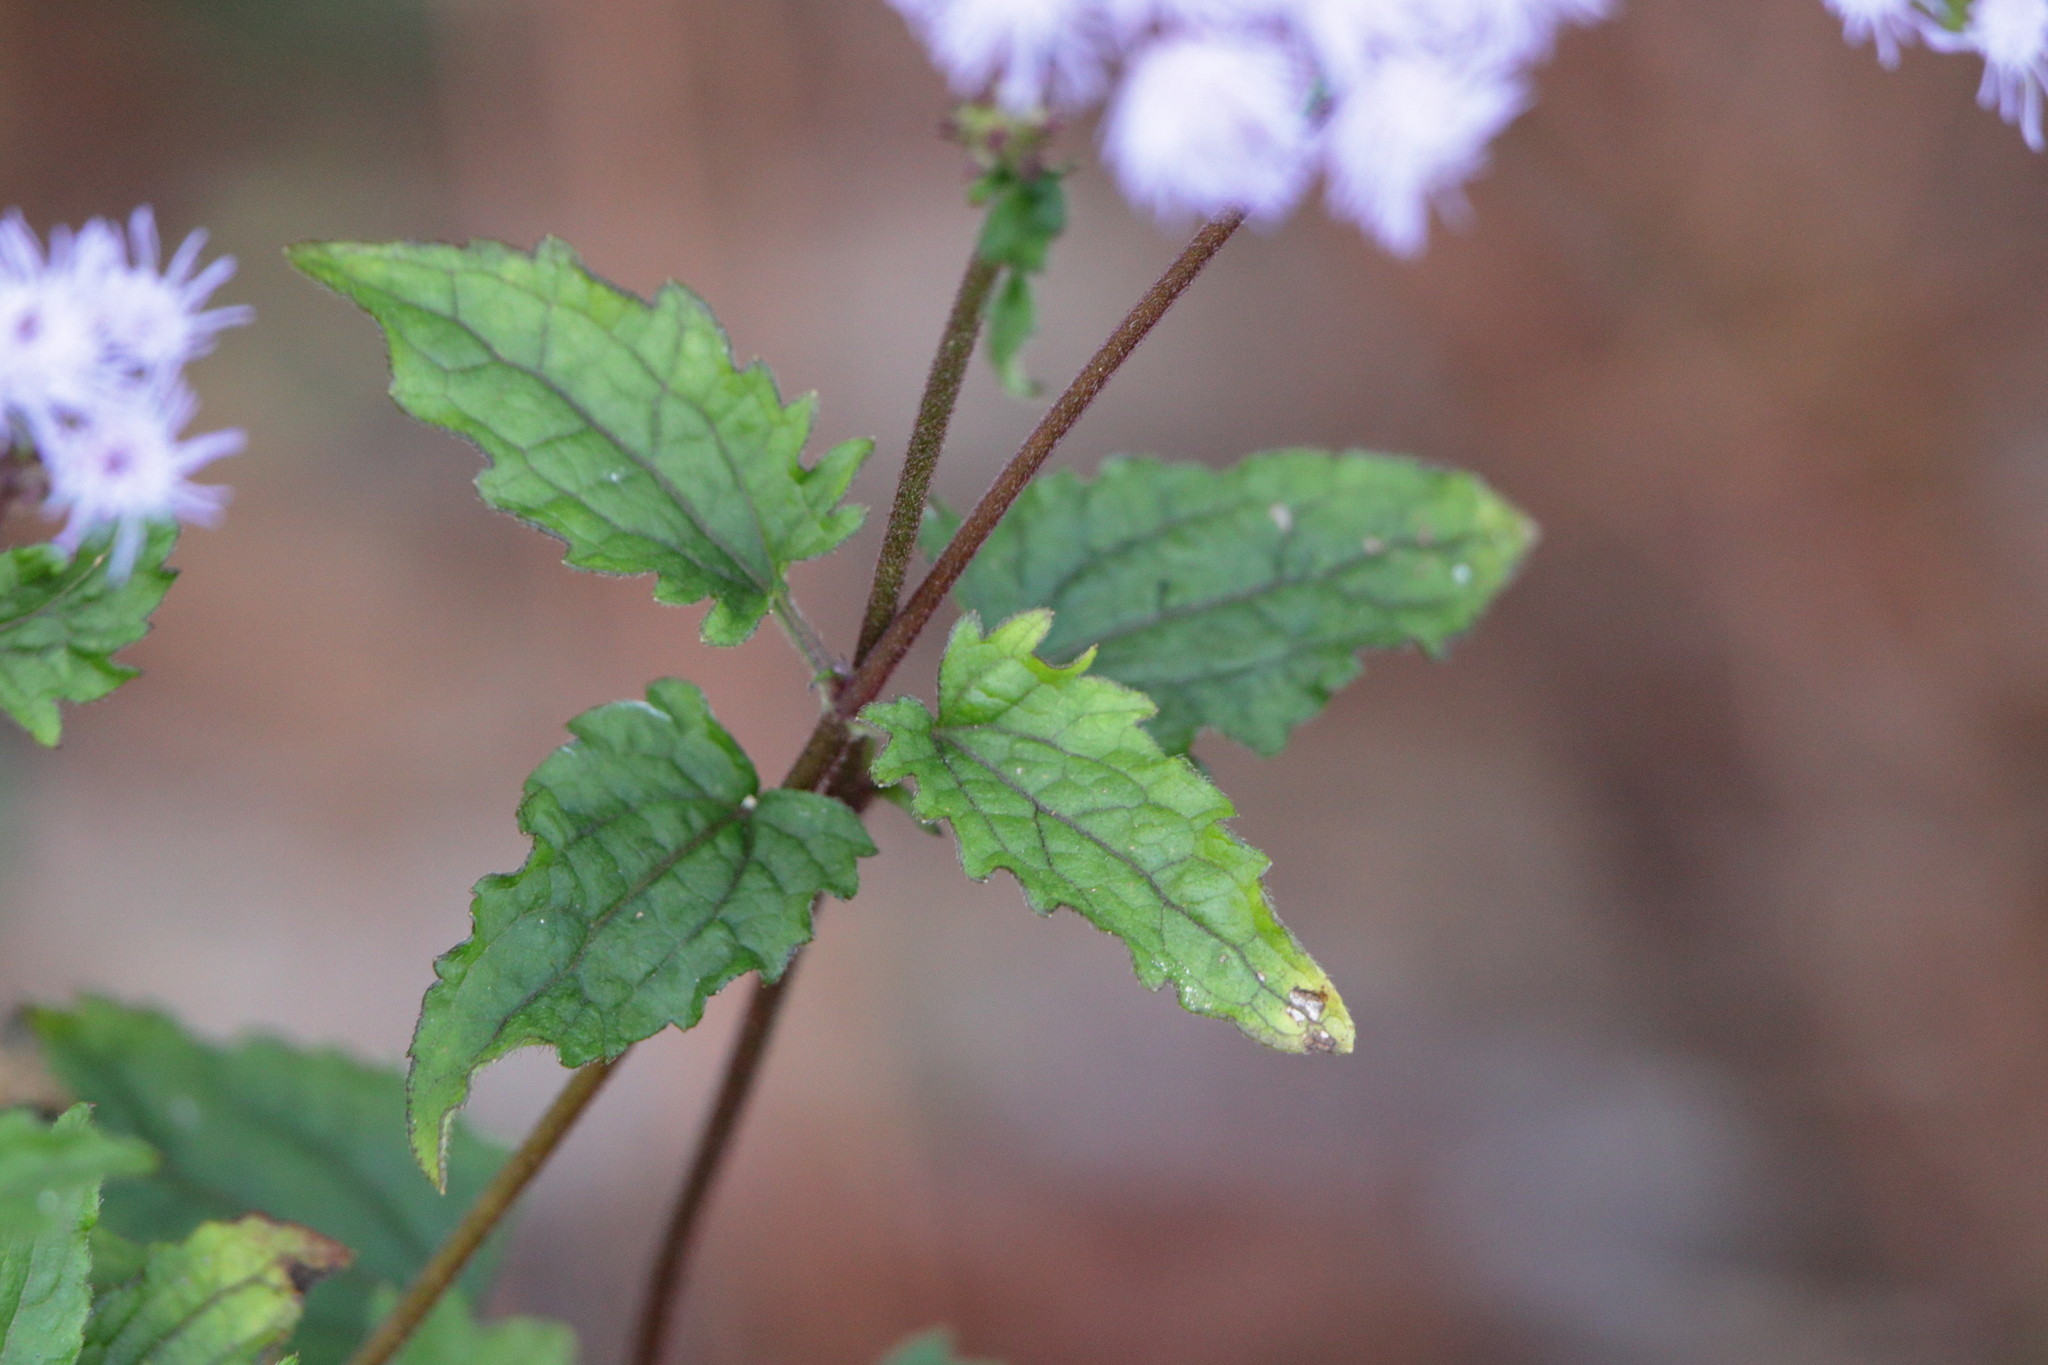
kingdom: Plantae
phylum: Tracheophyta
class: Magnoliopsida
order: Asterales
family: Asteraceae
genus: Conoclinium
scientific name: Conoclinium coelestinum
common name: Blue mistflower
